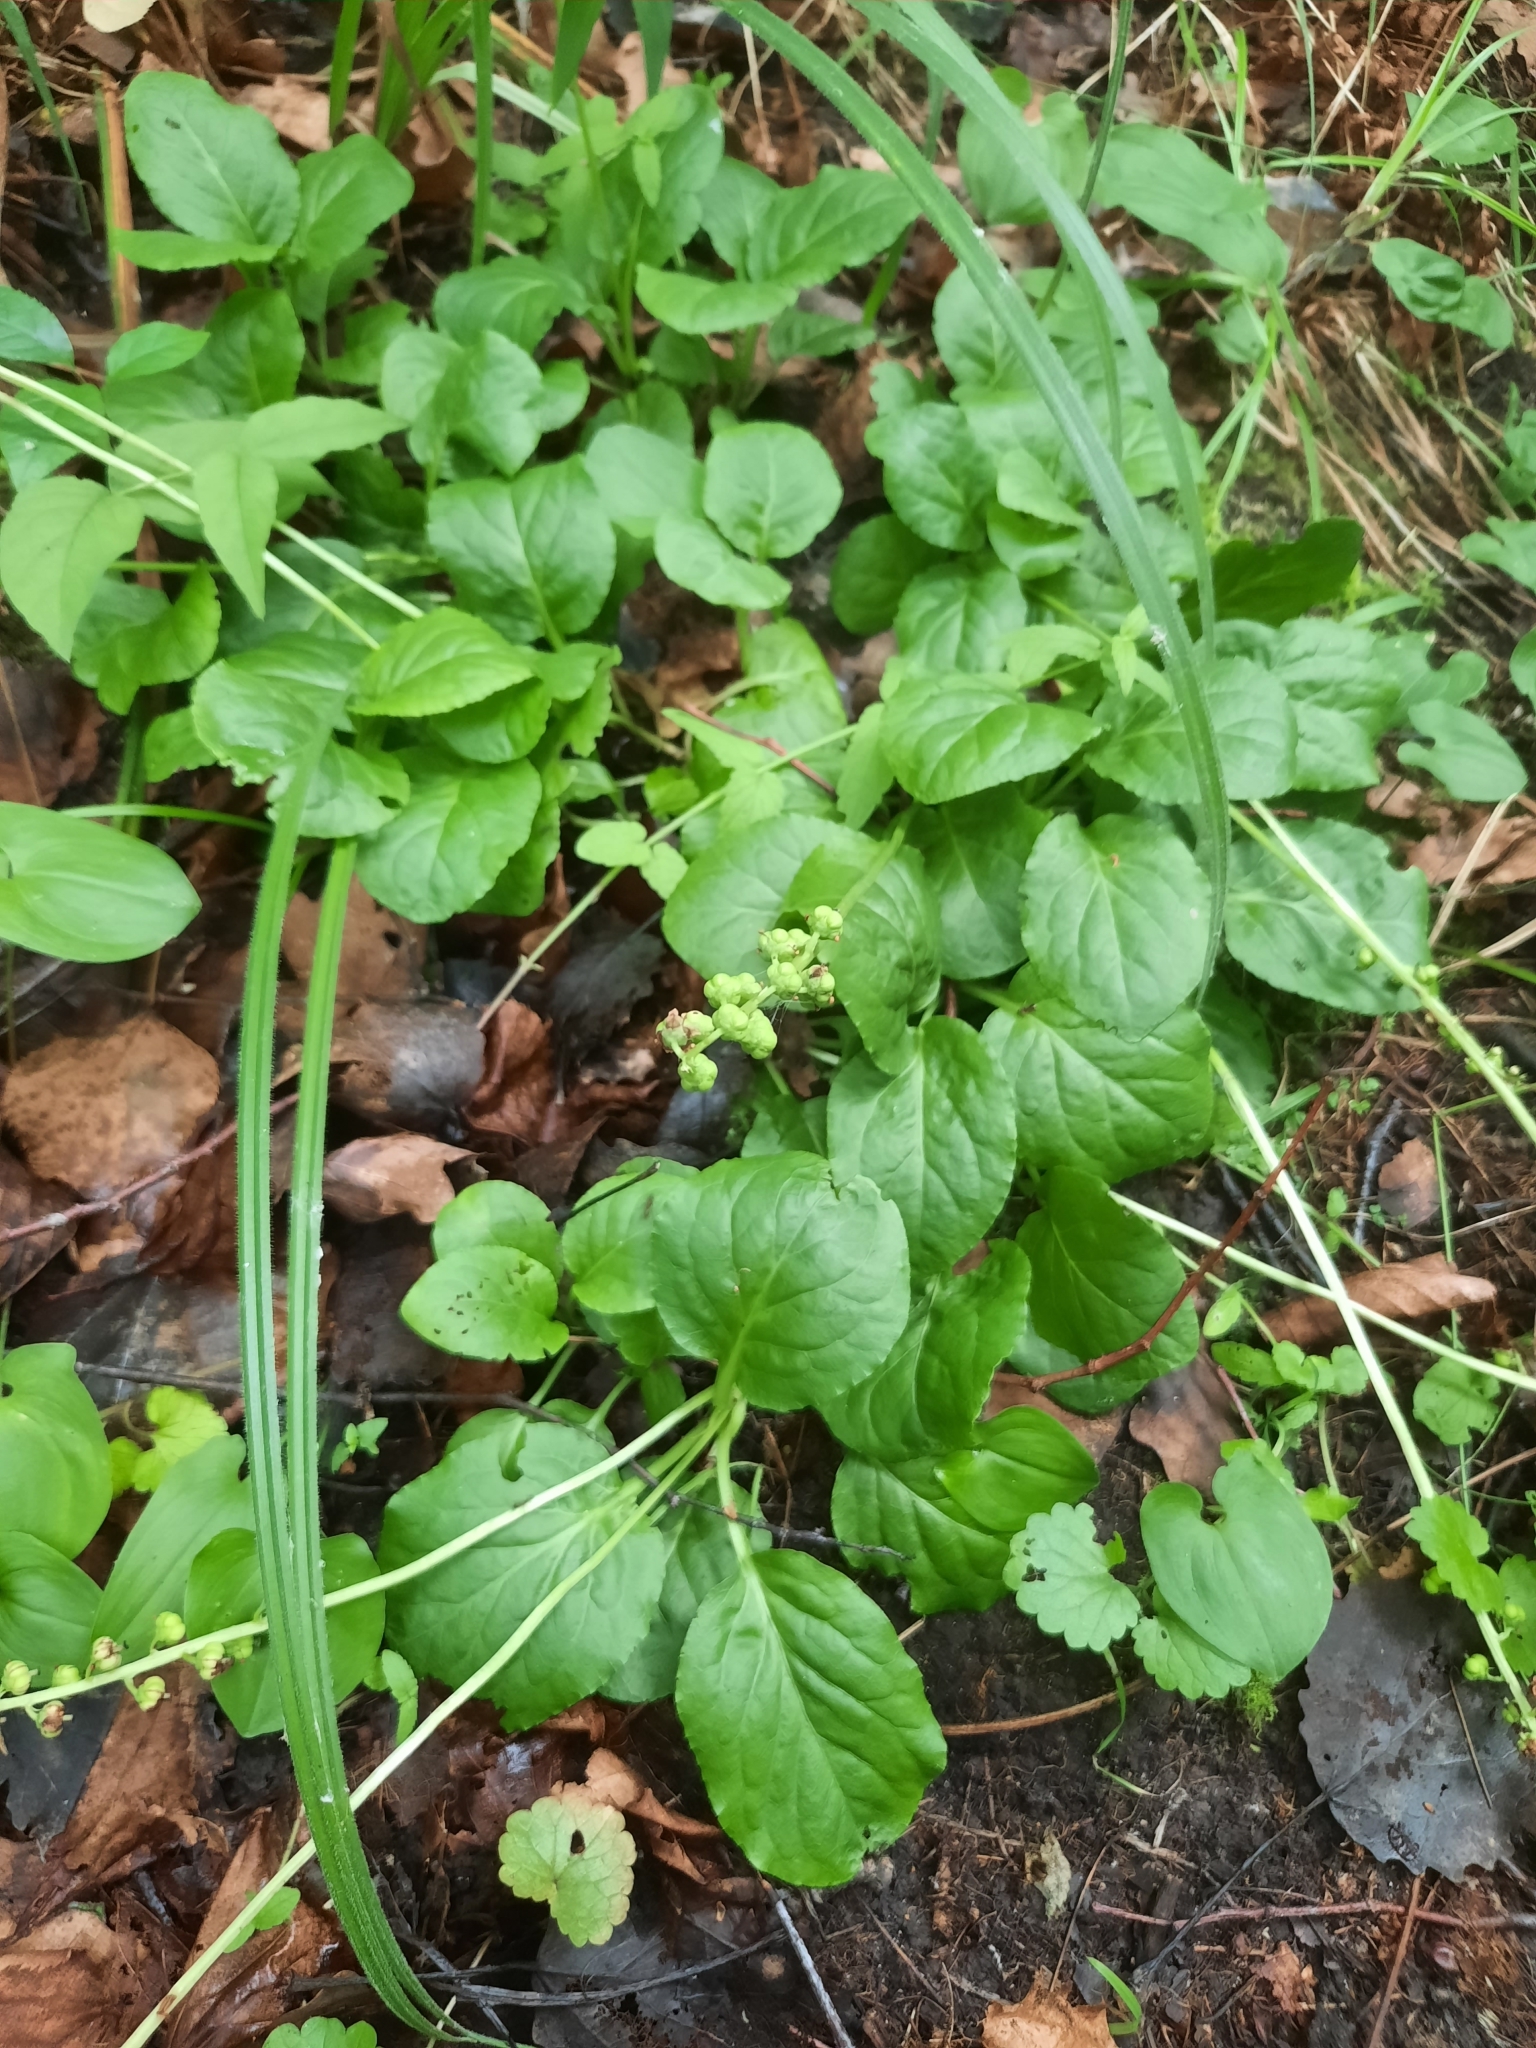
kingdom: Plantae
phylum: Tracheophyta
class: Magnoliopsida
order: Ericales
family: Ericaceae
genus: Pyrola
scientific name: Pyrola minor
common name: Common wintergreen
